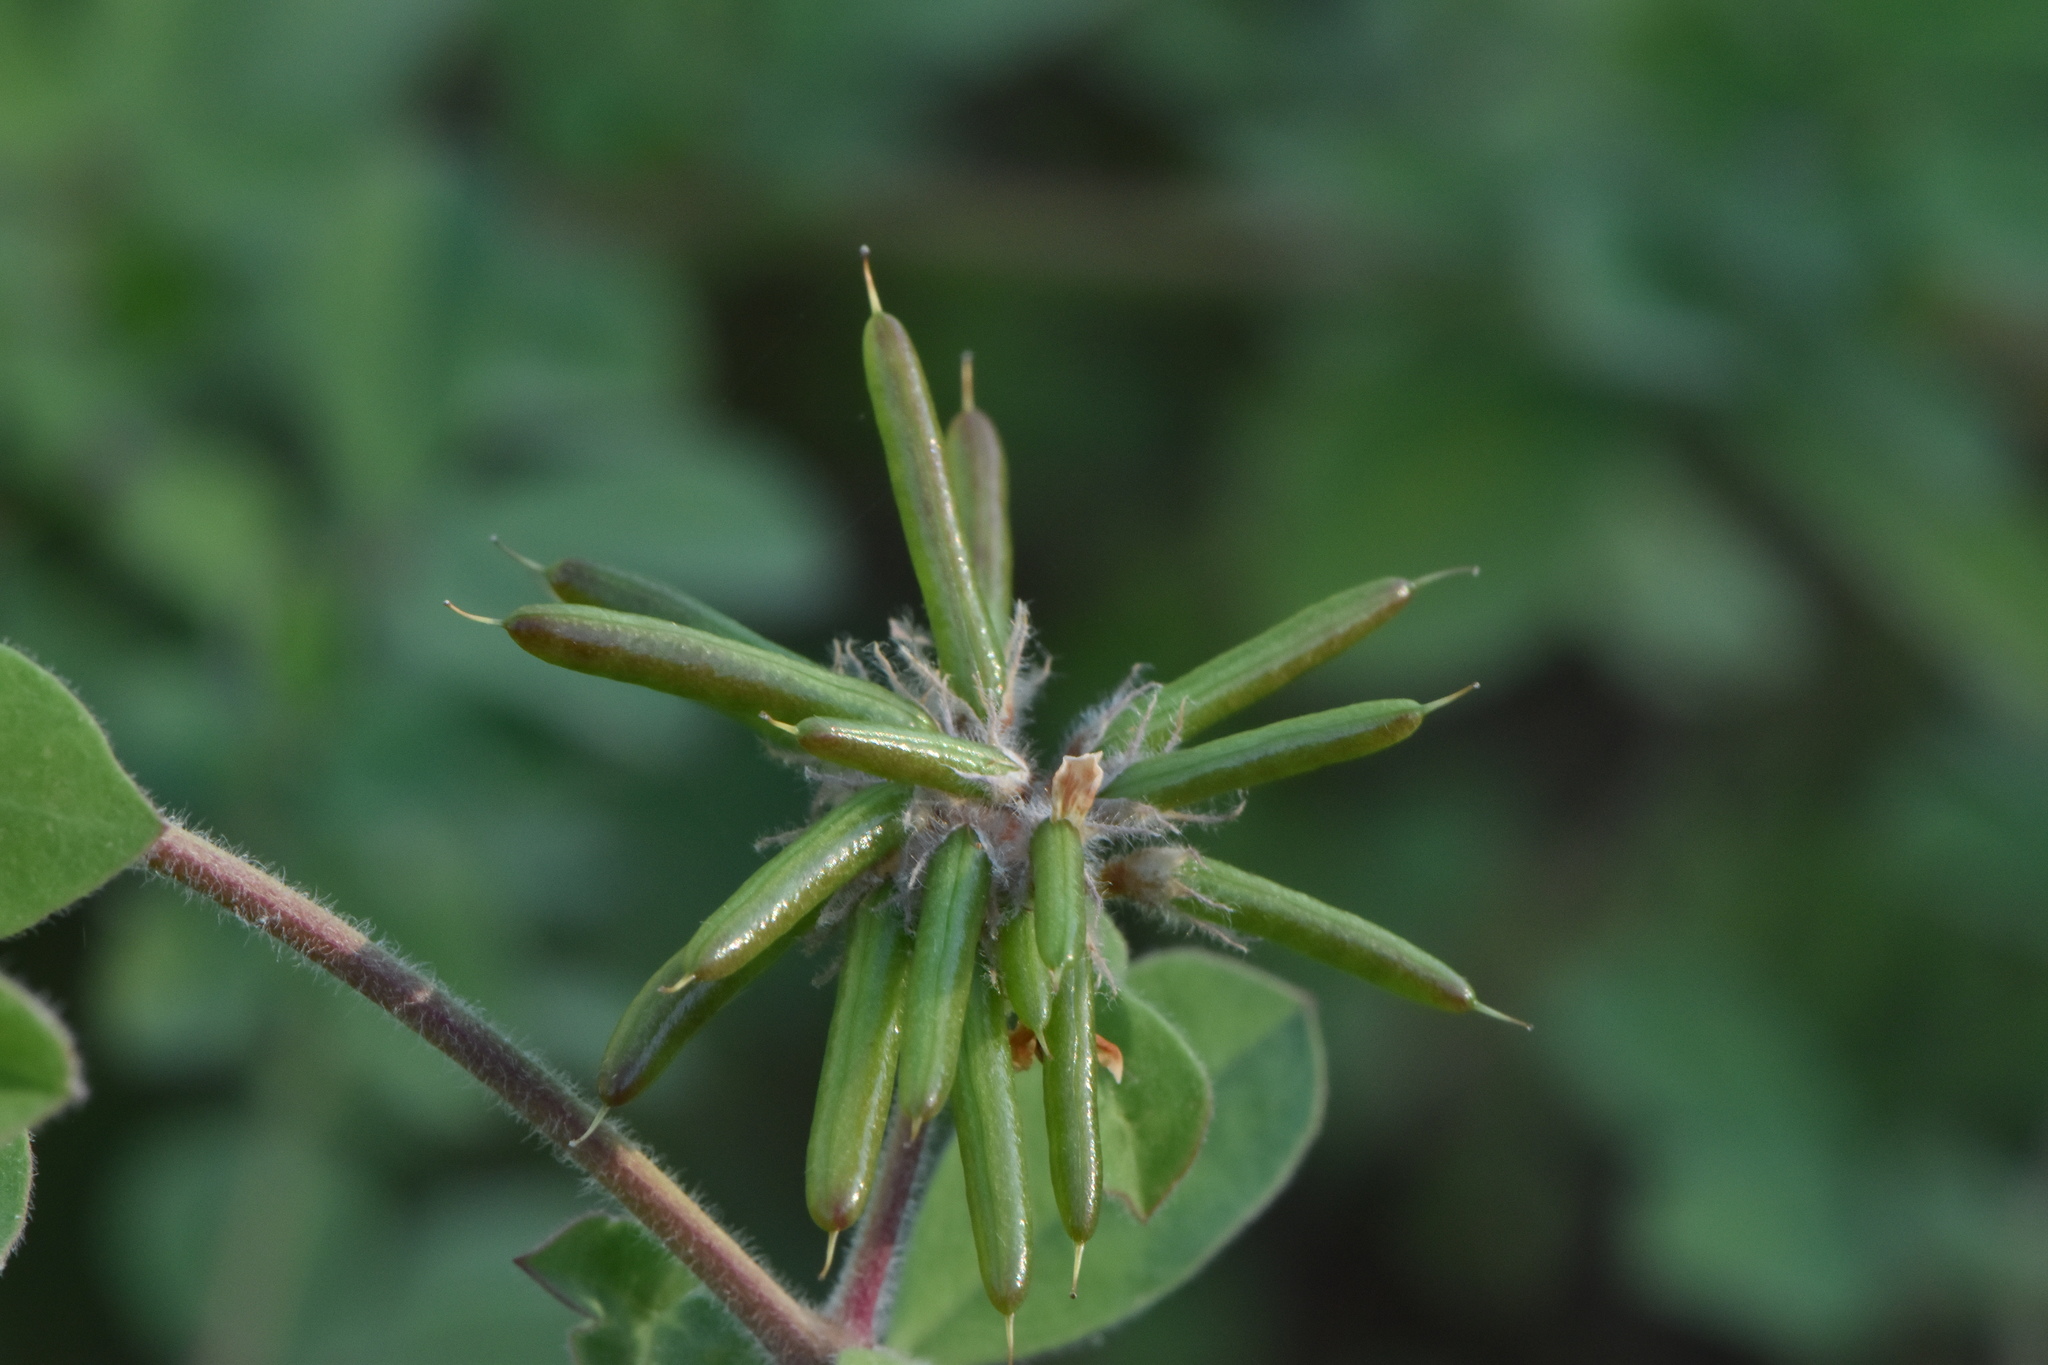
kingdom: Plantae
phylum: Tracheophyta
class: Magnoliopsida
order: Fabales
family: Fabaceae
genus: Lotus
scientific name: Lotus rectus
